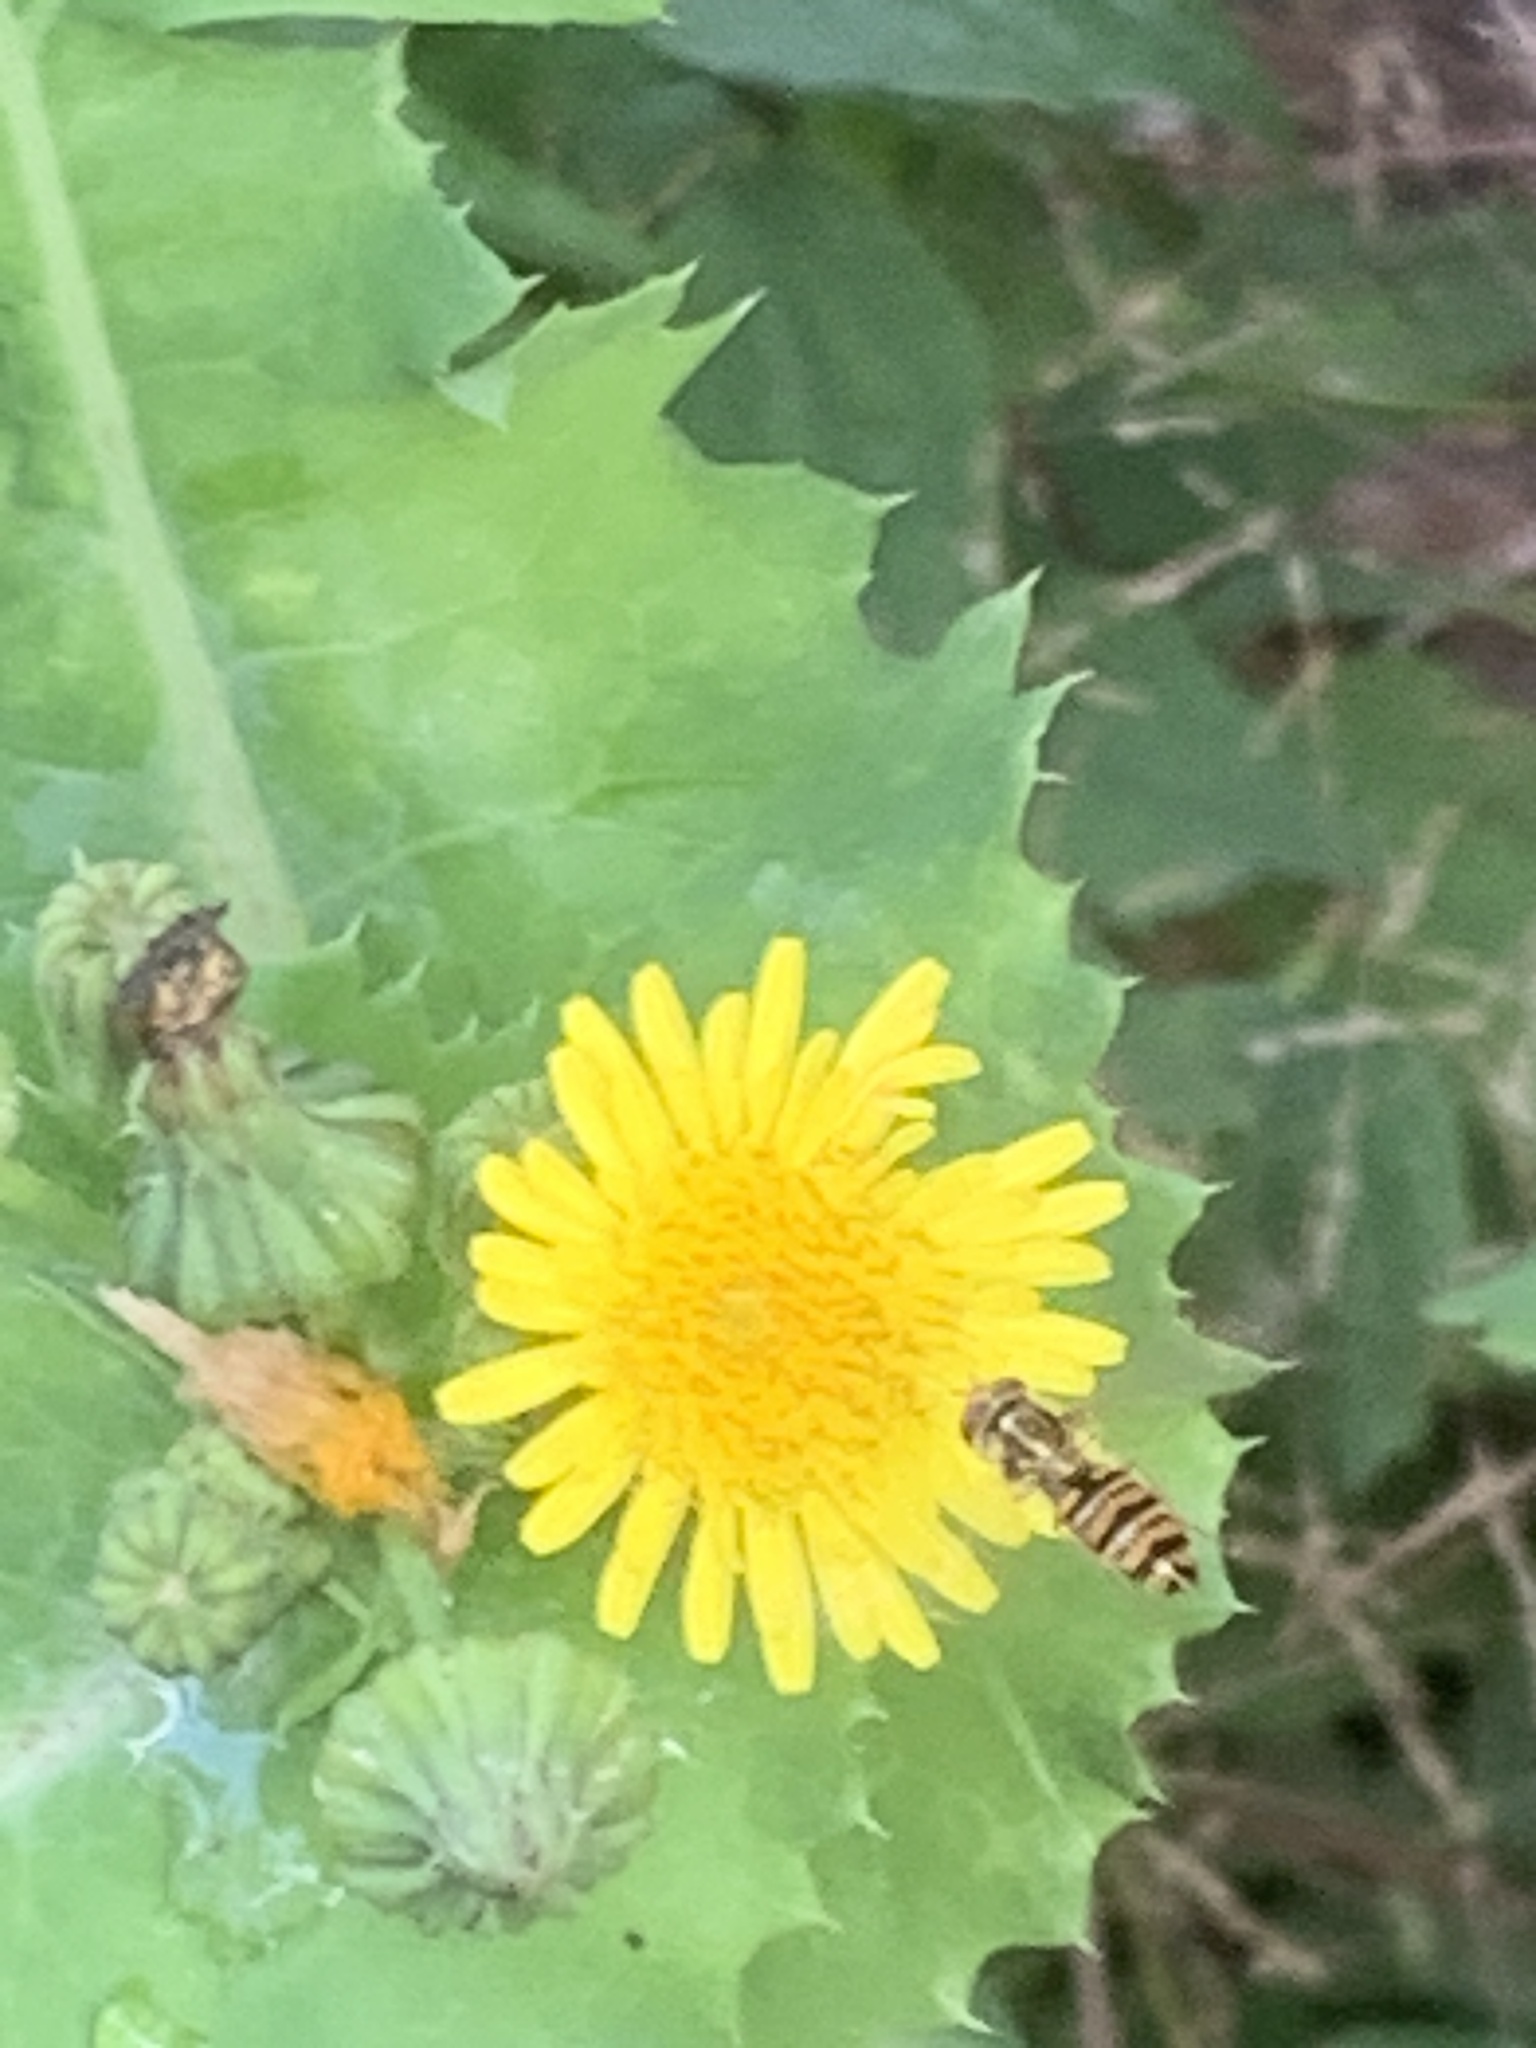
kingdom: Animalia
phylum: Arthropoda
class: Insecta
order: Diptera
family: Syrphidae
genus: Episyrphus
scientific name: Episyrphus balteatus
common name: Marmalade hoverfly
